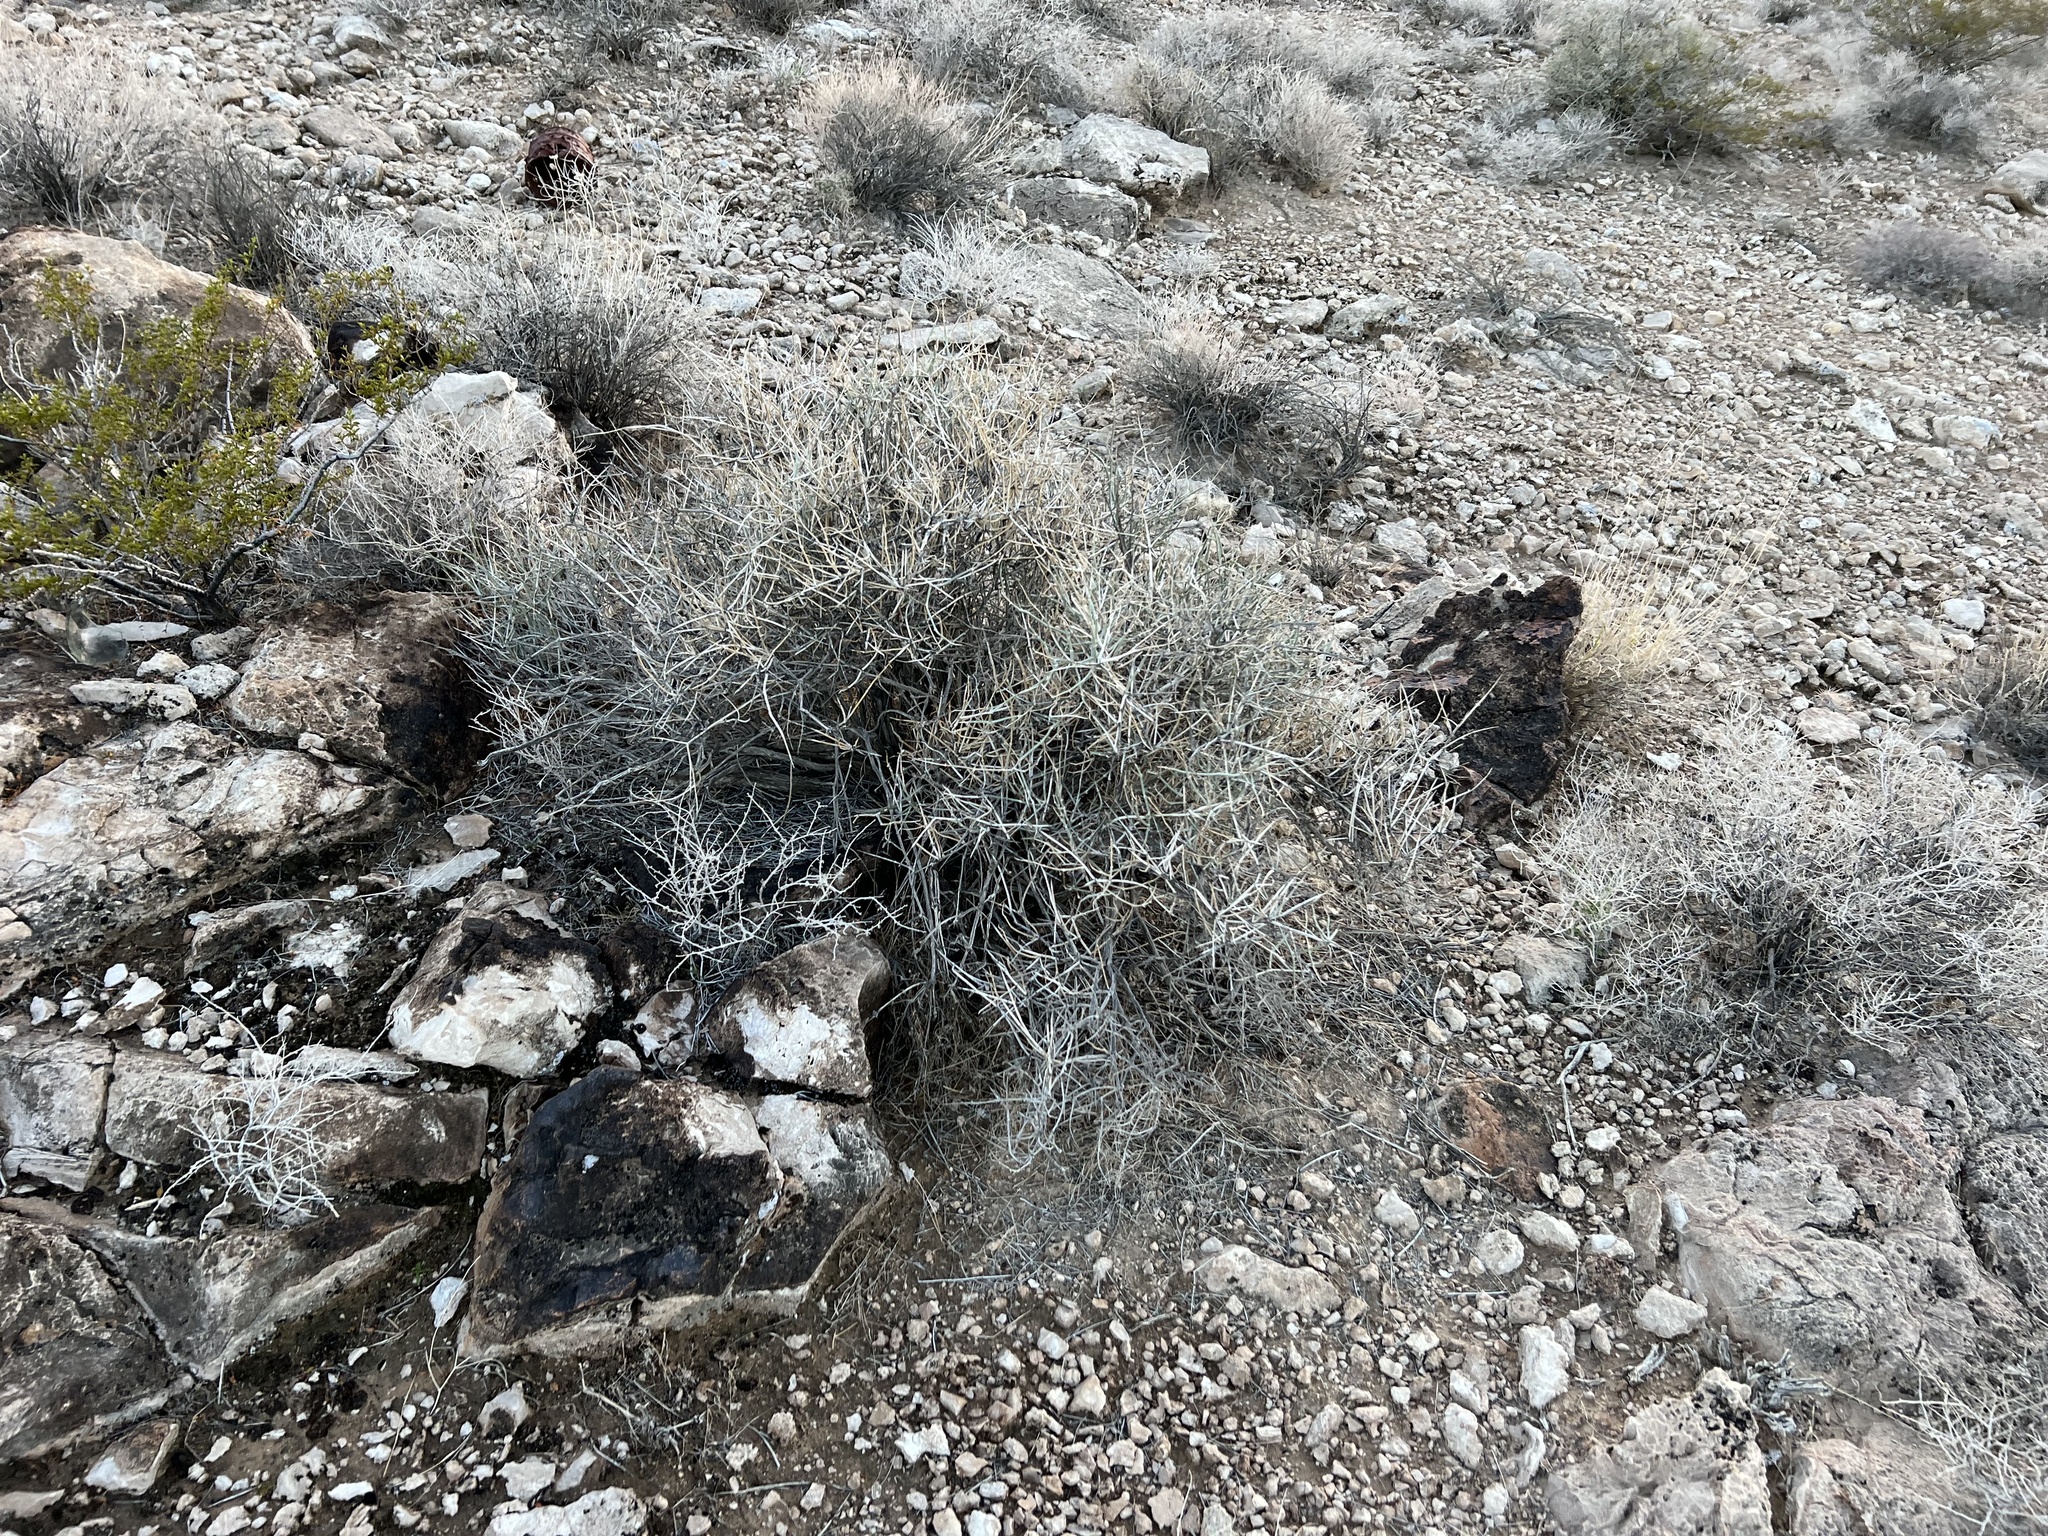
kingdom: Plantae
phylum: Tracheophyta
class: Gnetopsida
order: Ephedrales
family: Ephedraceae
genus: Ephedra
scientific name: Ephedra nevadensis
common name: Gray ephedra
